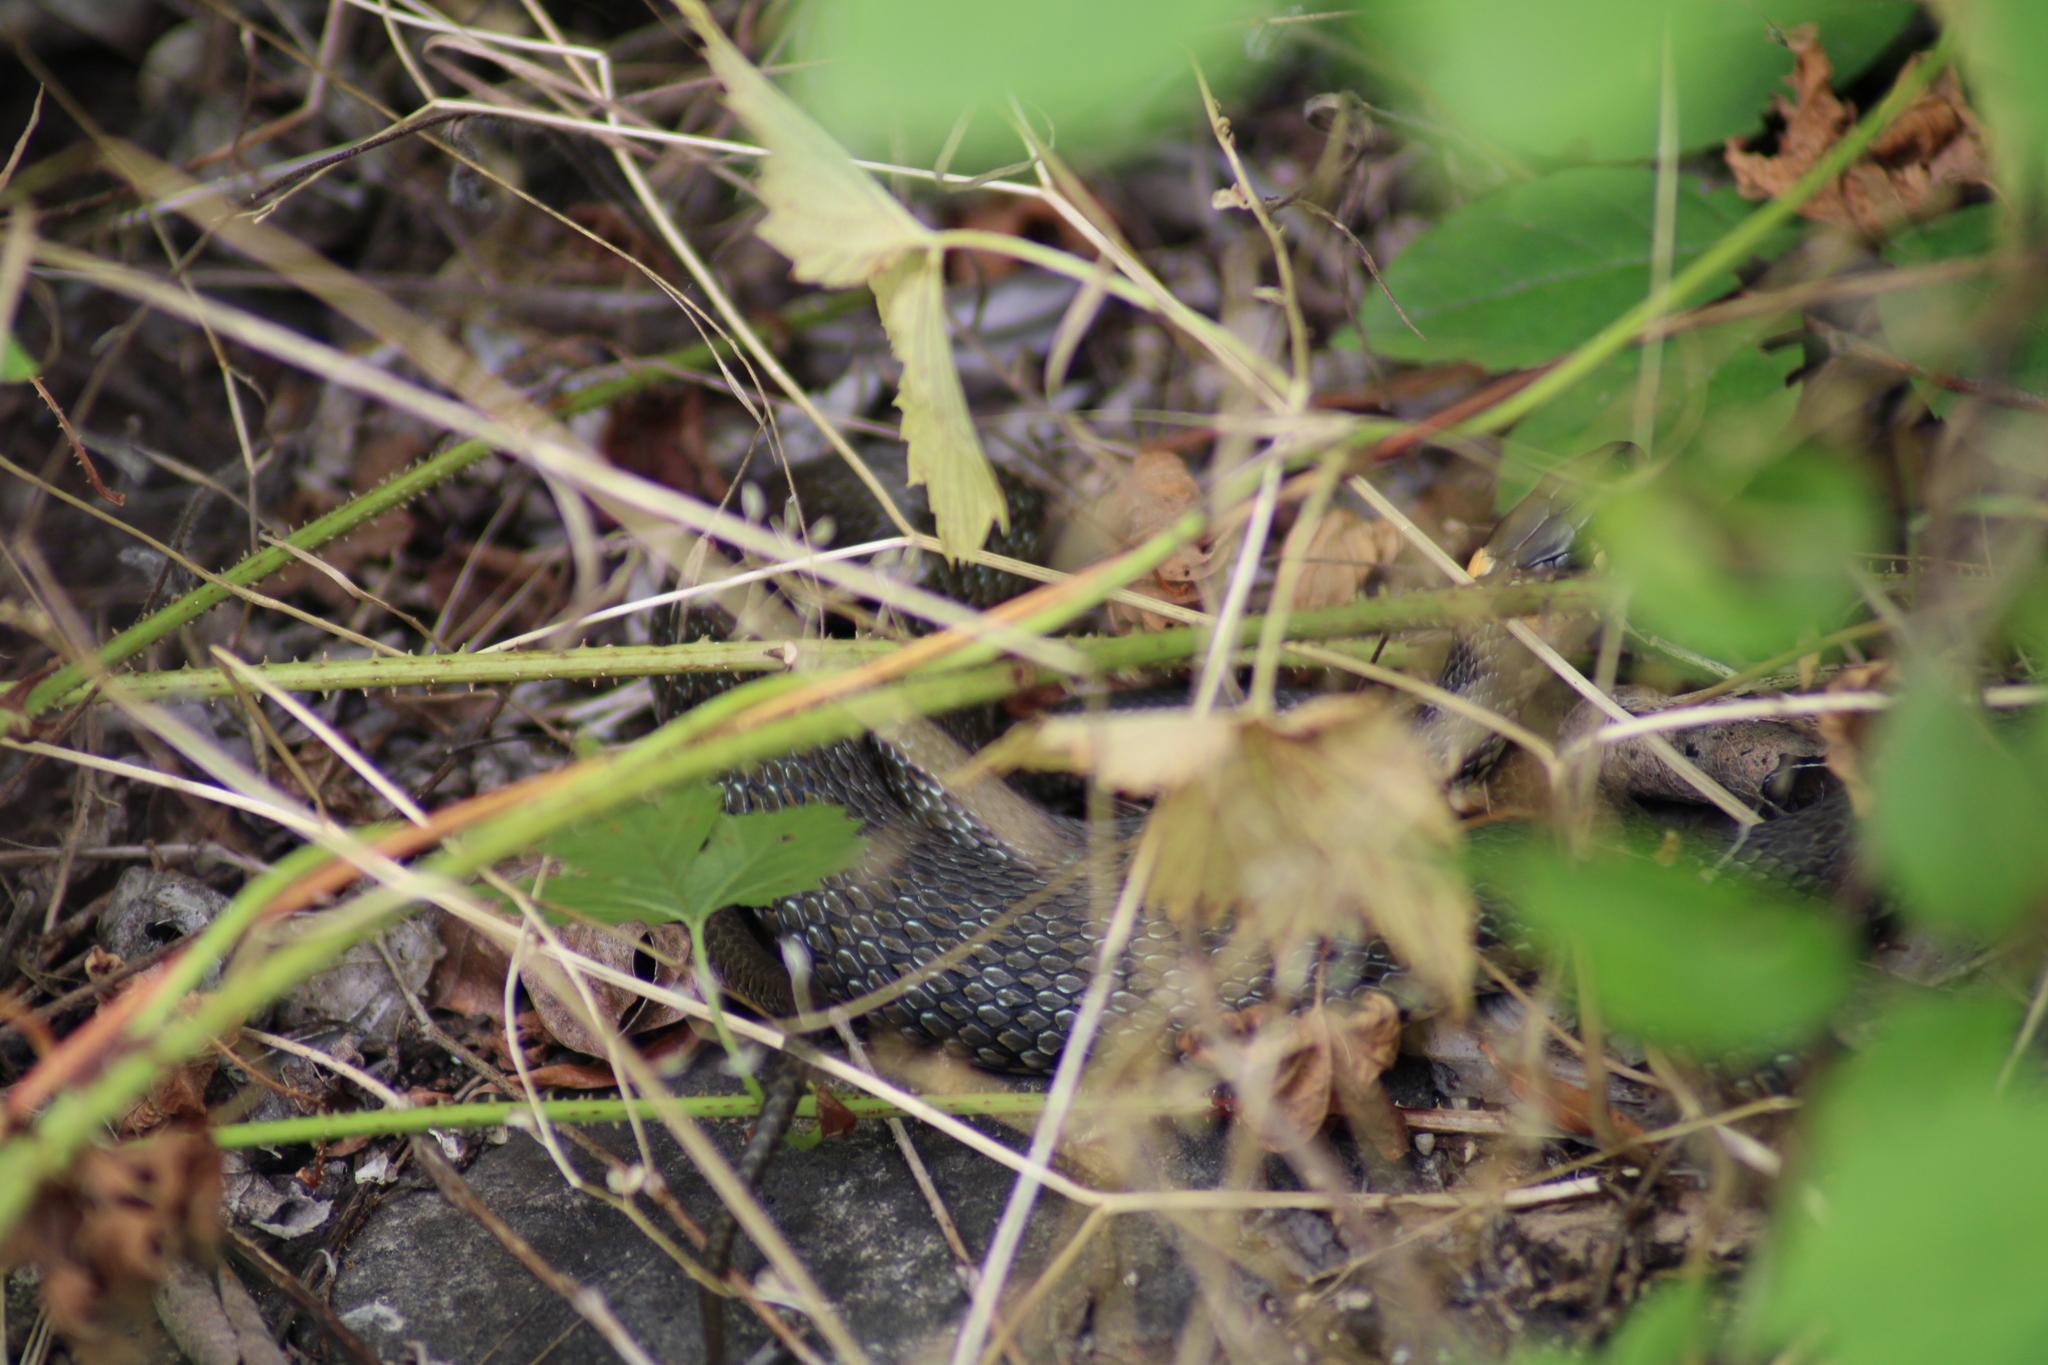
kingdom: Animalia
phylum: Chordata
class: Squamata
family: Colubridae
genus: Natrix
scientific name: Natrix natrix
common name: Grass snake
